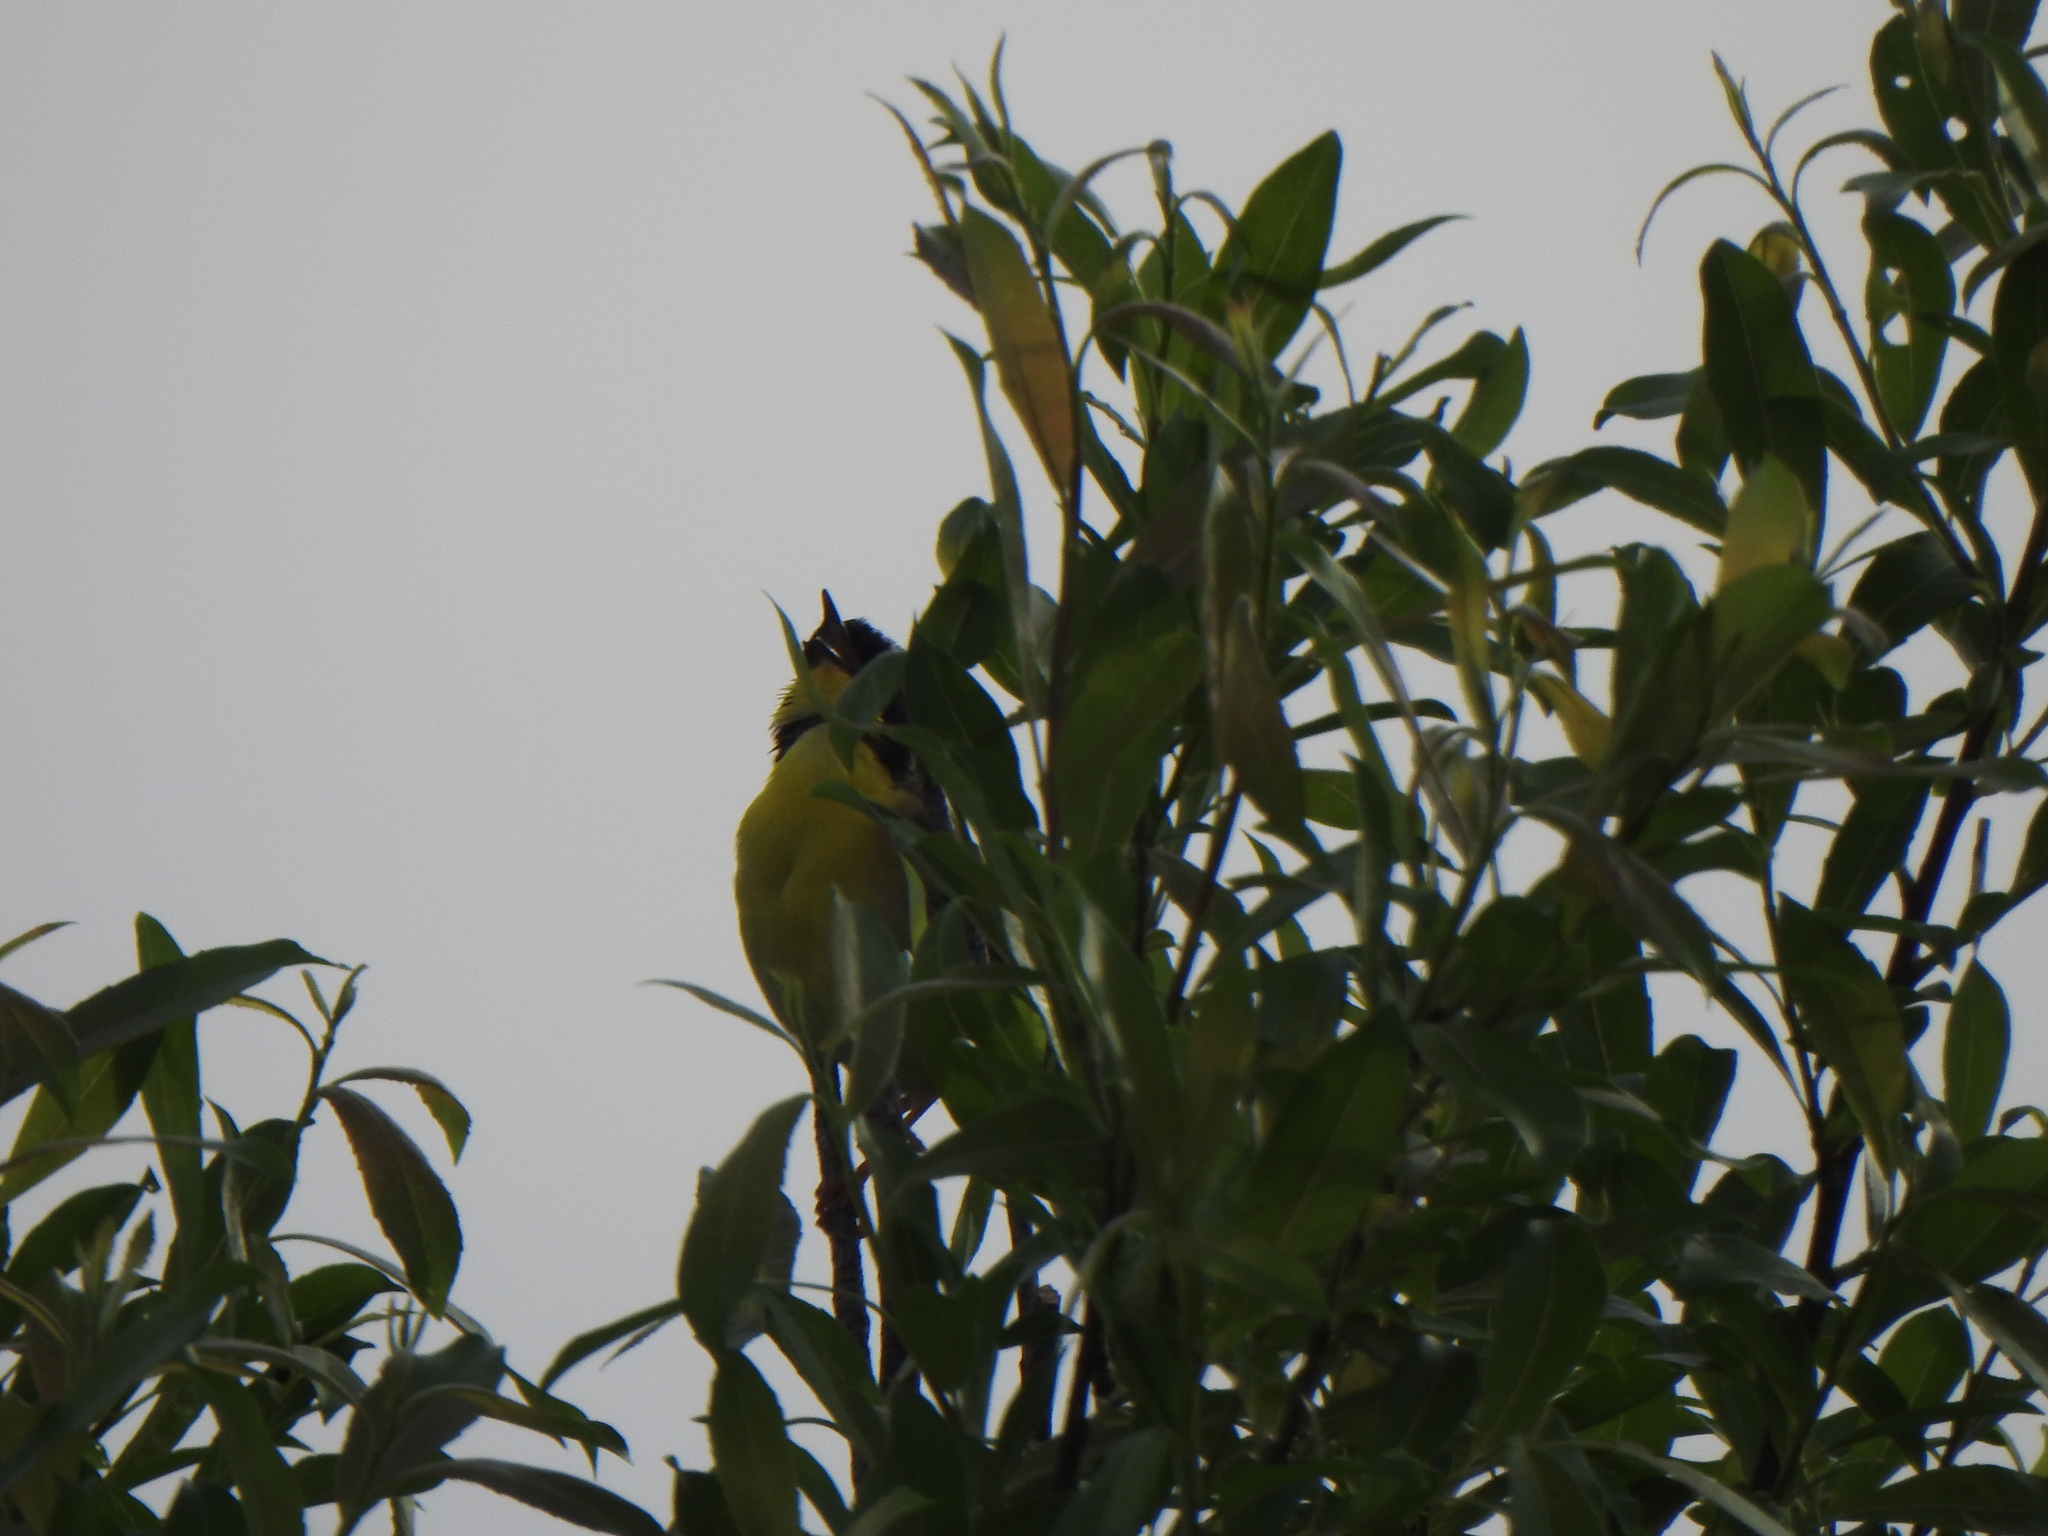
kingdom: Animalia
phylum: Chordata
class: Aves
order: Passeriformes
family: Parulidae
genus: Geothlypis
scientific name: Geothlypis trichas
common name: Common yellowthroat
